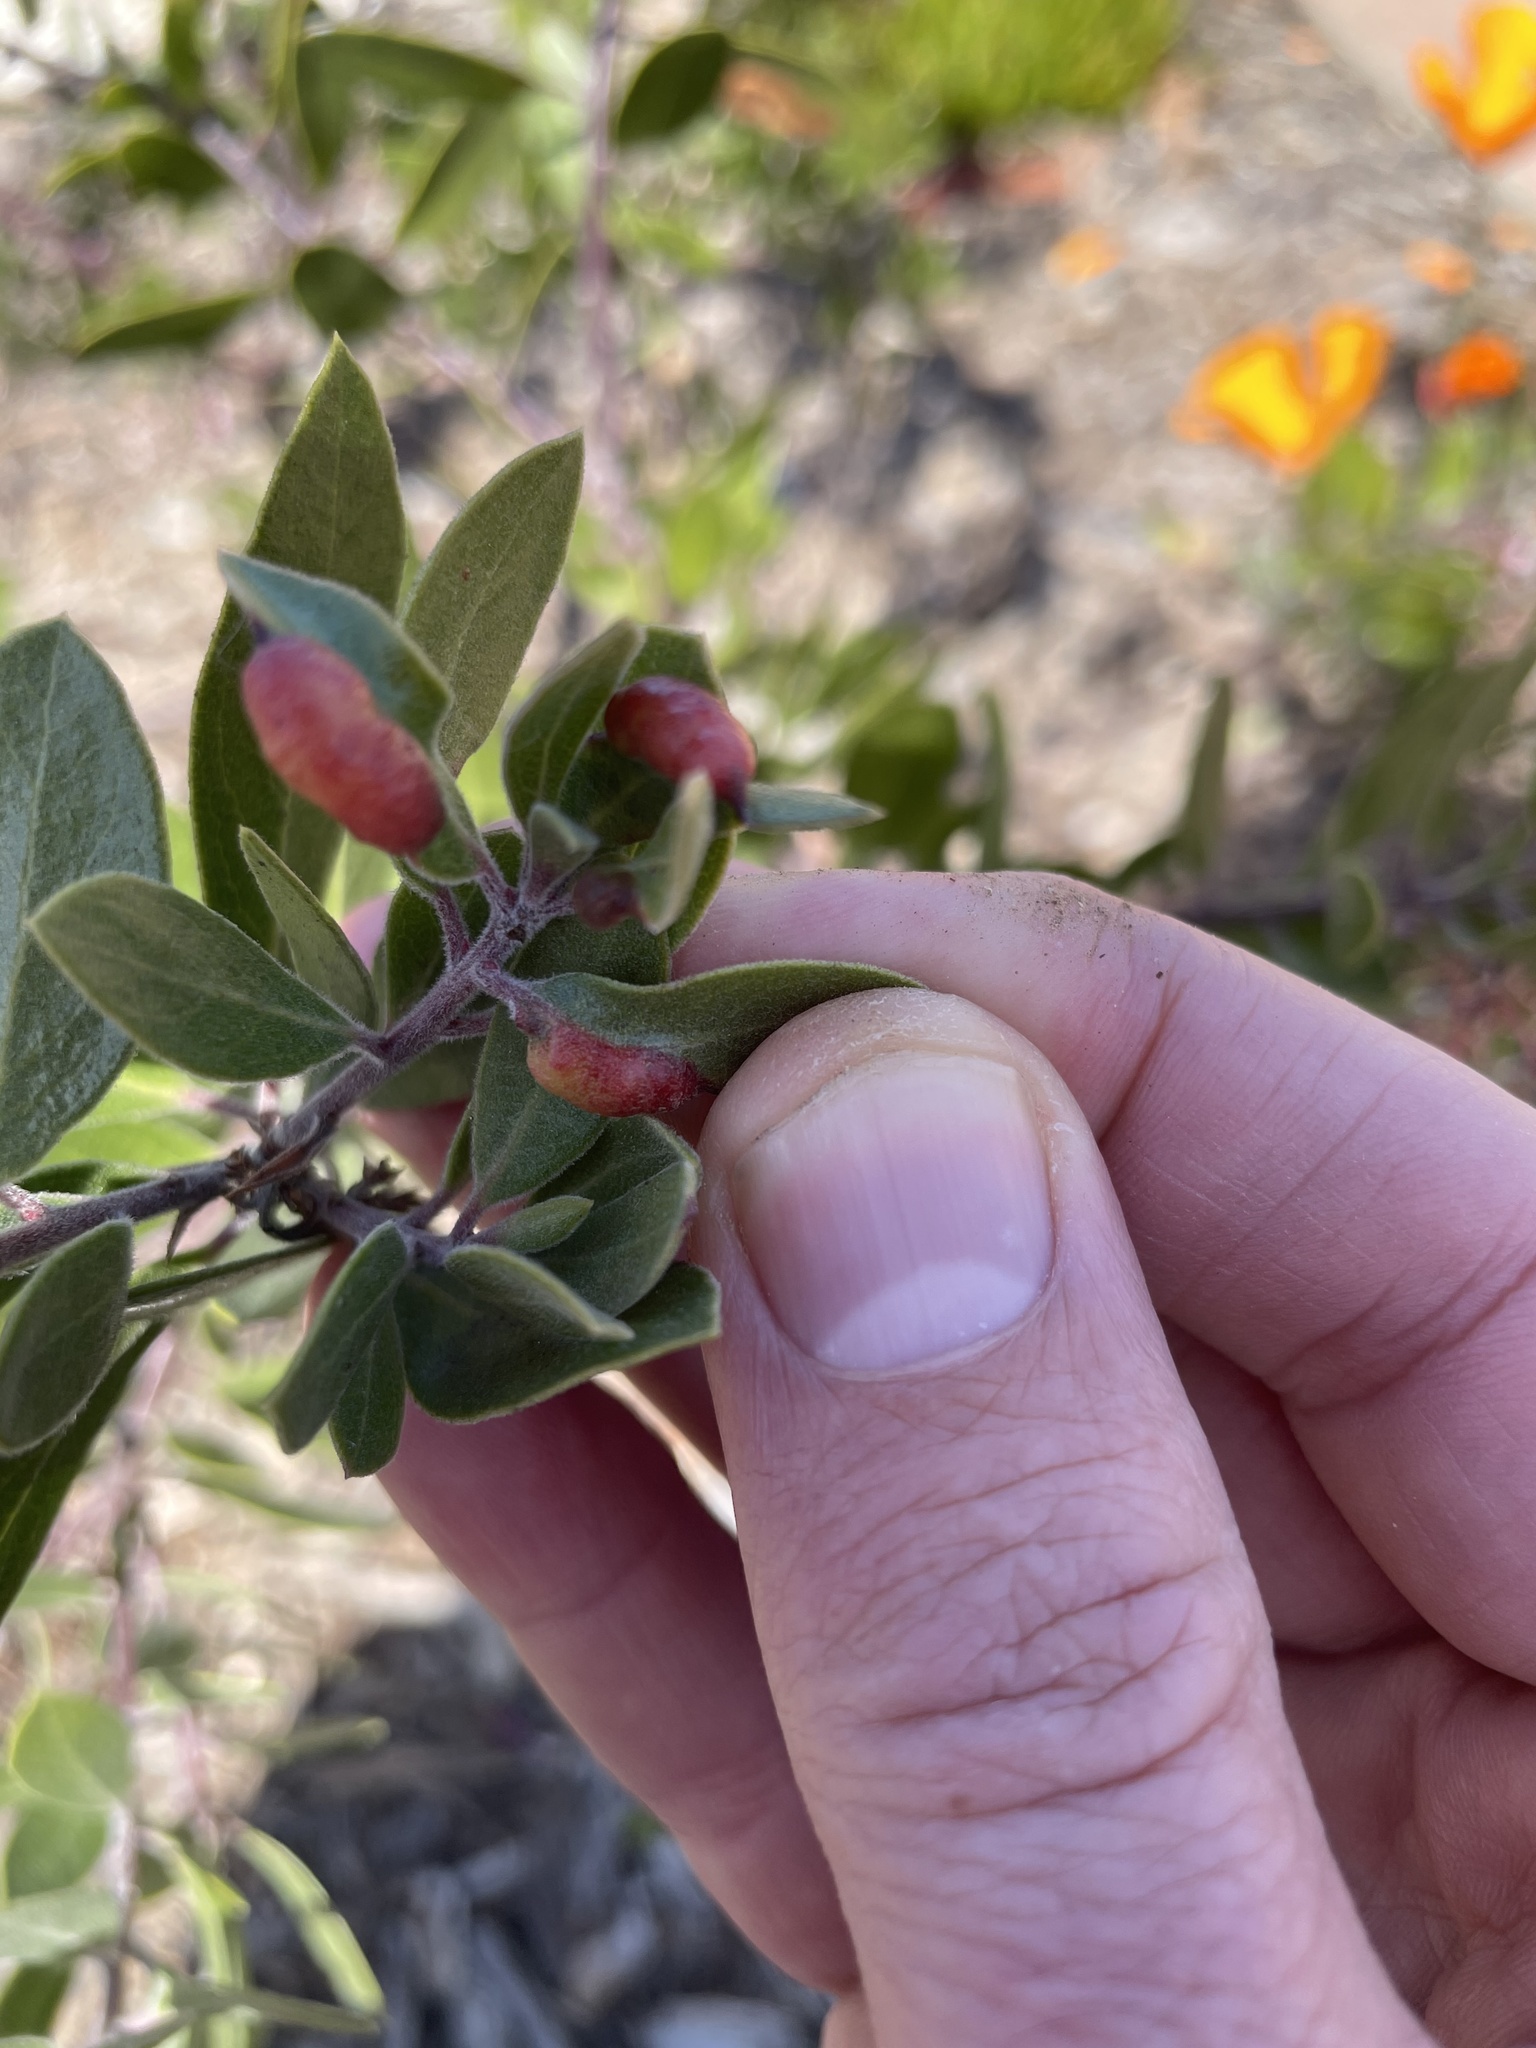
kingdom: Animalia
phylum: Arthropoda
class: Insecta
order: Hemiptera
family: Aphididae
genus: Tamalia
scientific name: Tamalia coweni
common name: Manzanita leafgall aphid
